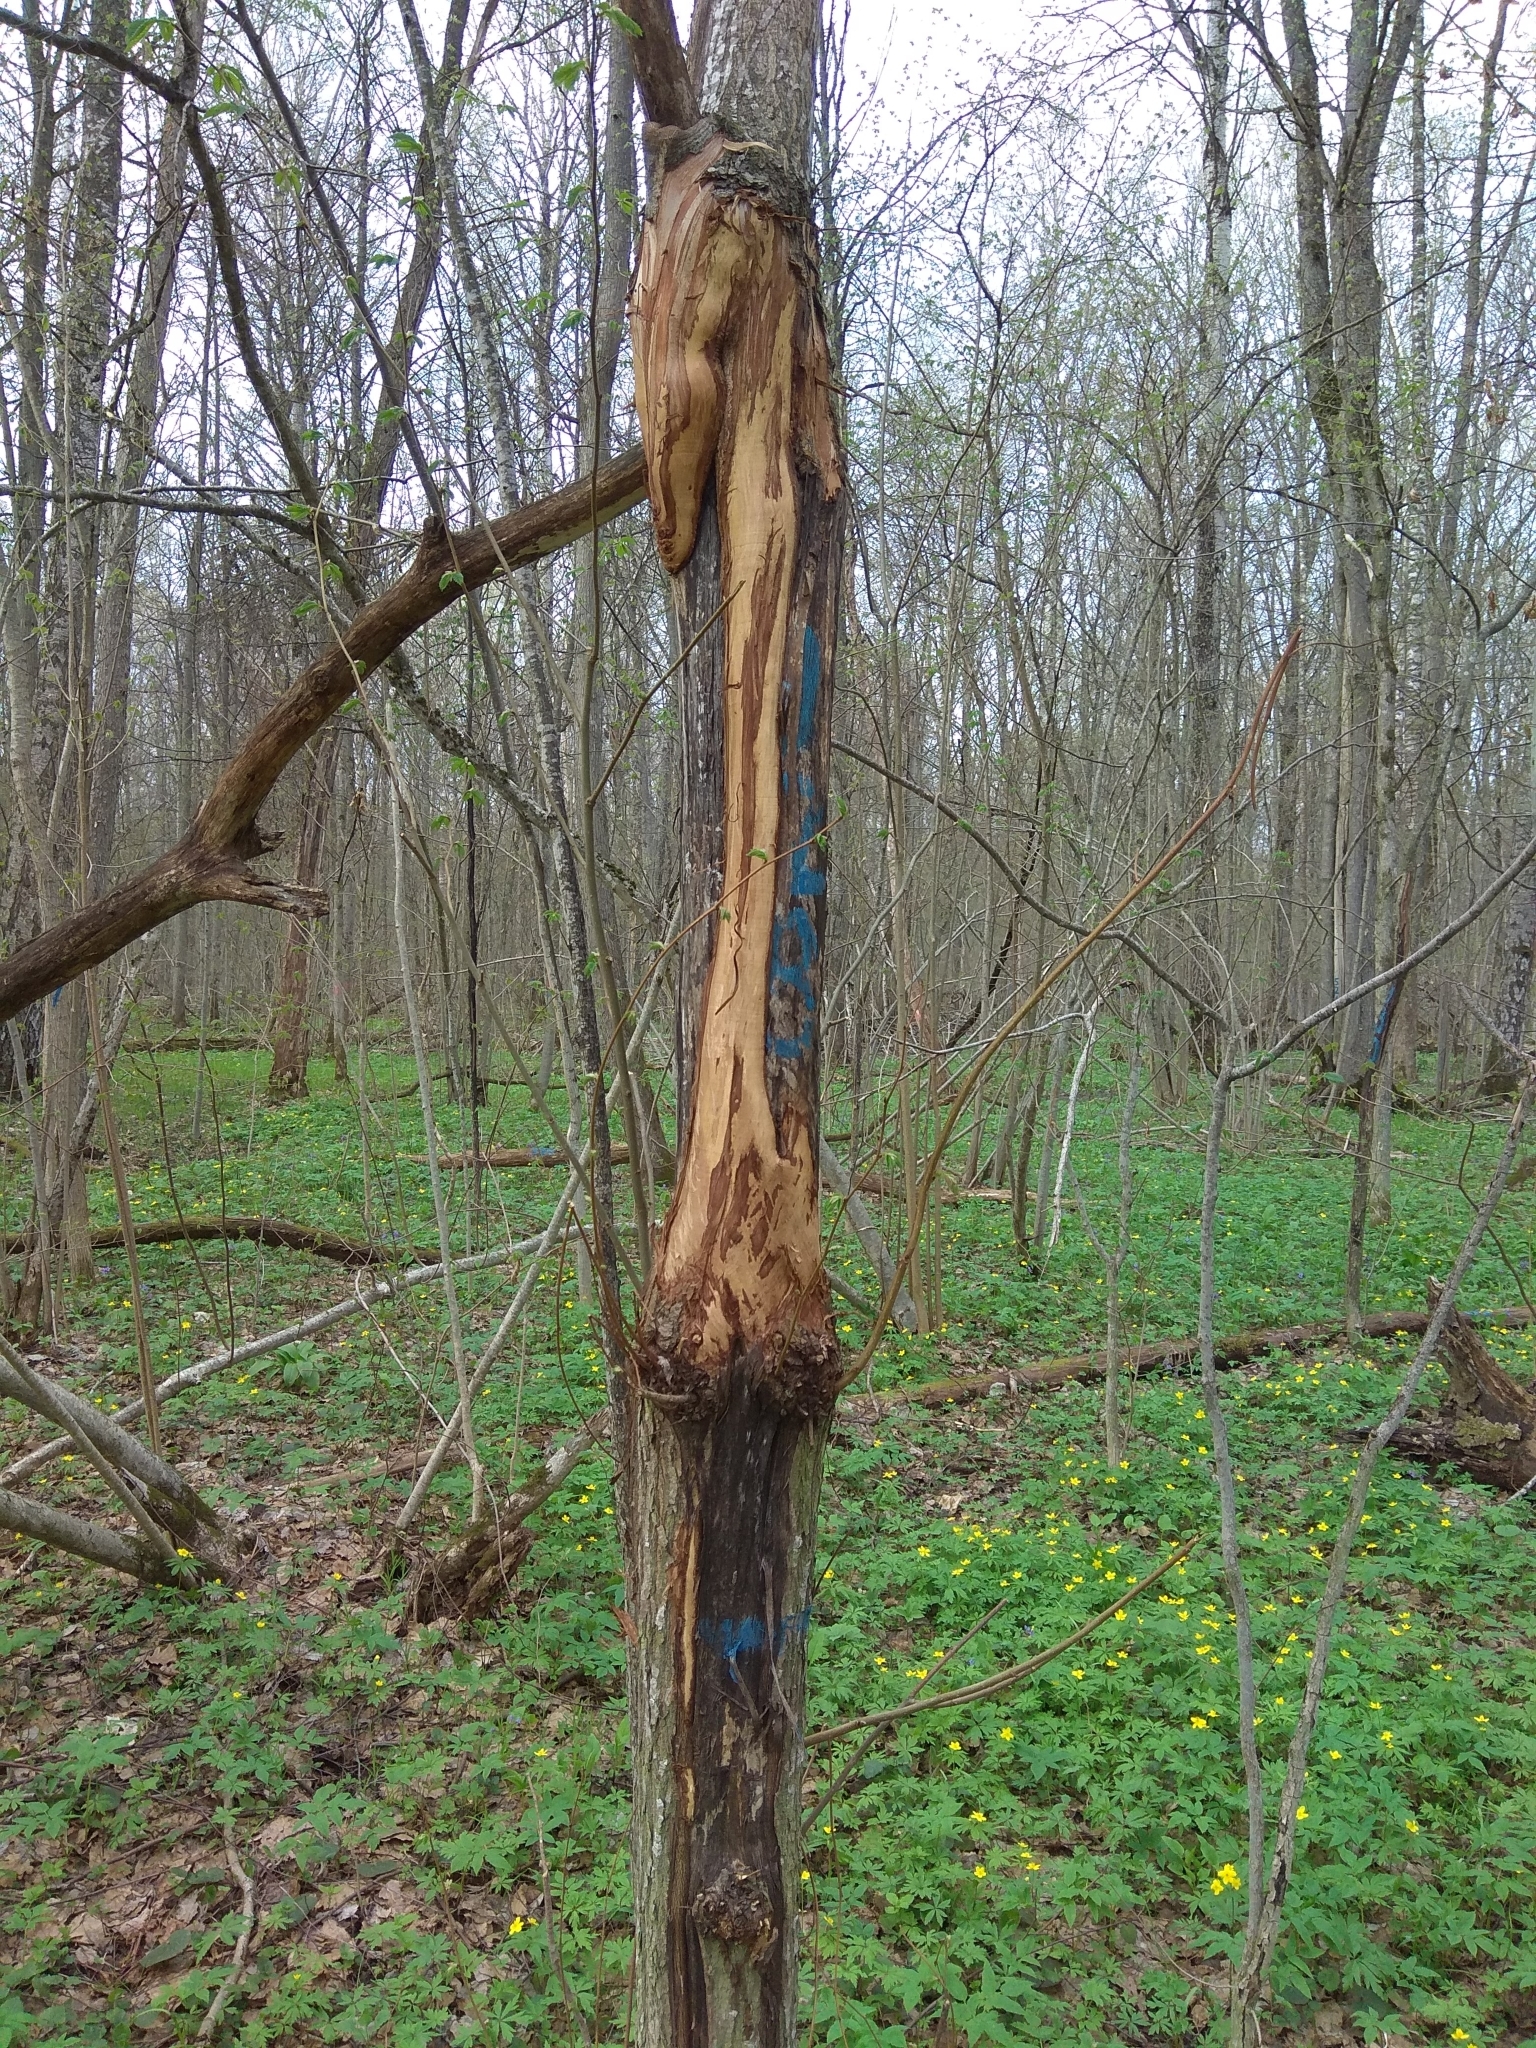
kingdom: Plantae
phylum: Tracheophyta
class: Magnoliopsida
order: Rosales
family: Ulmaceae
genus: Ulmus
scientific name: Ulmus glabra
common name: Wych elm
